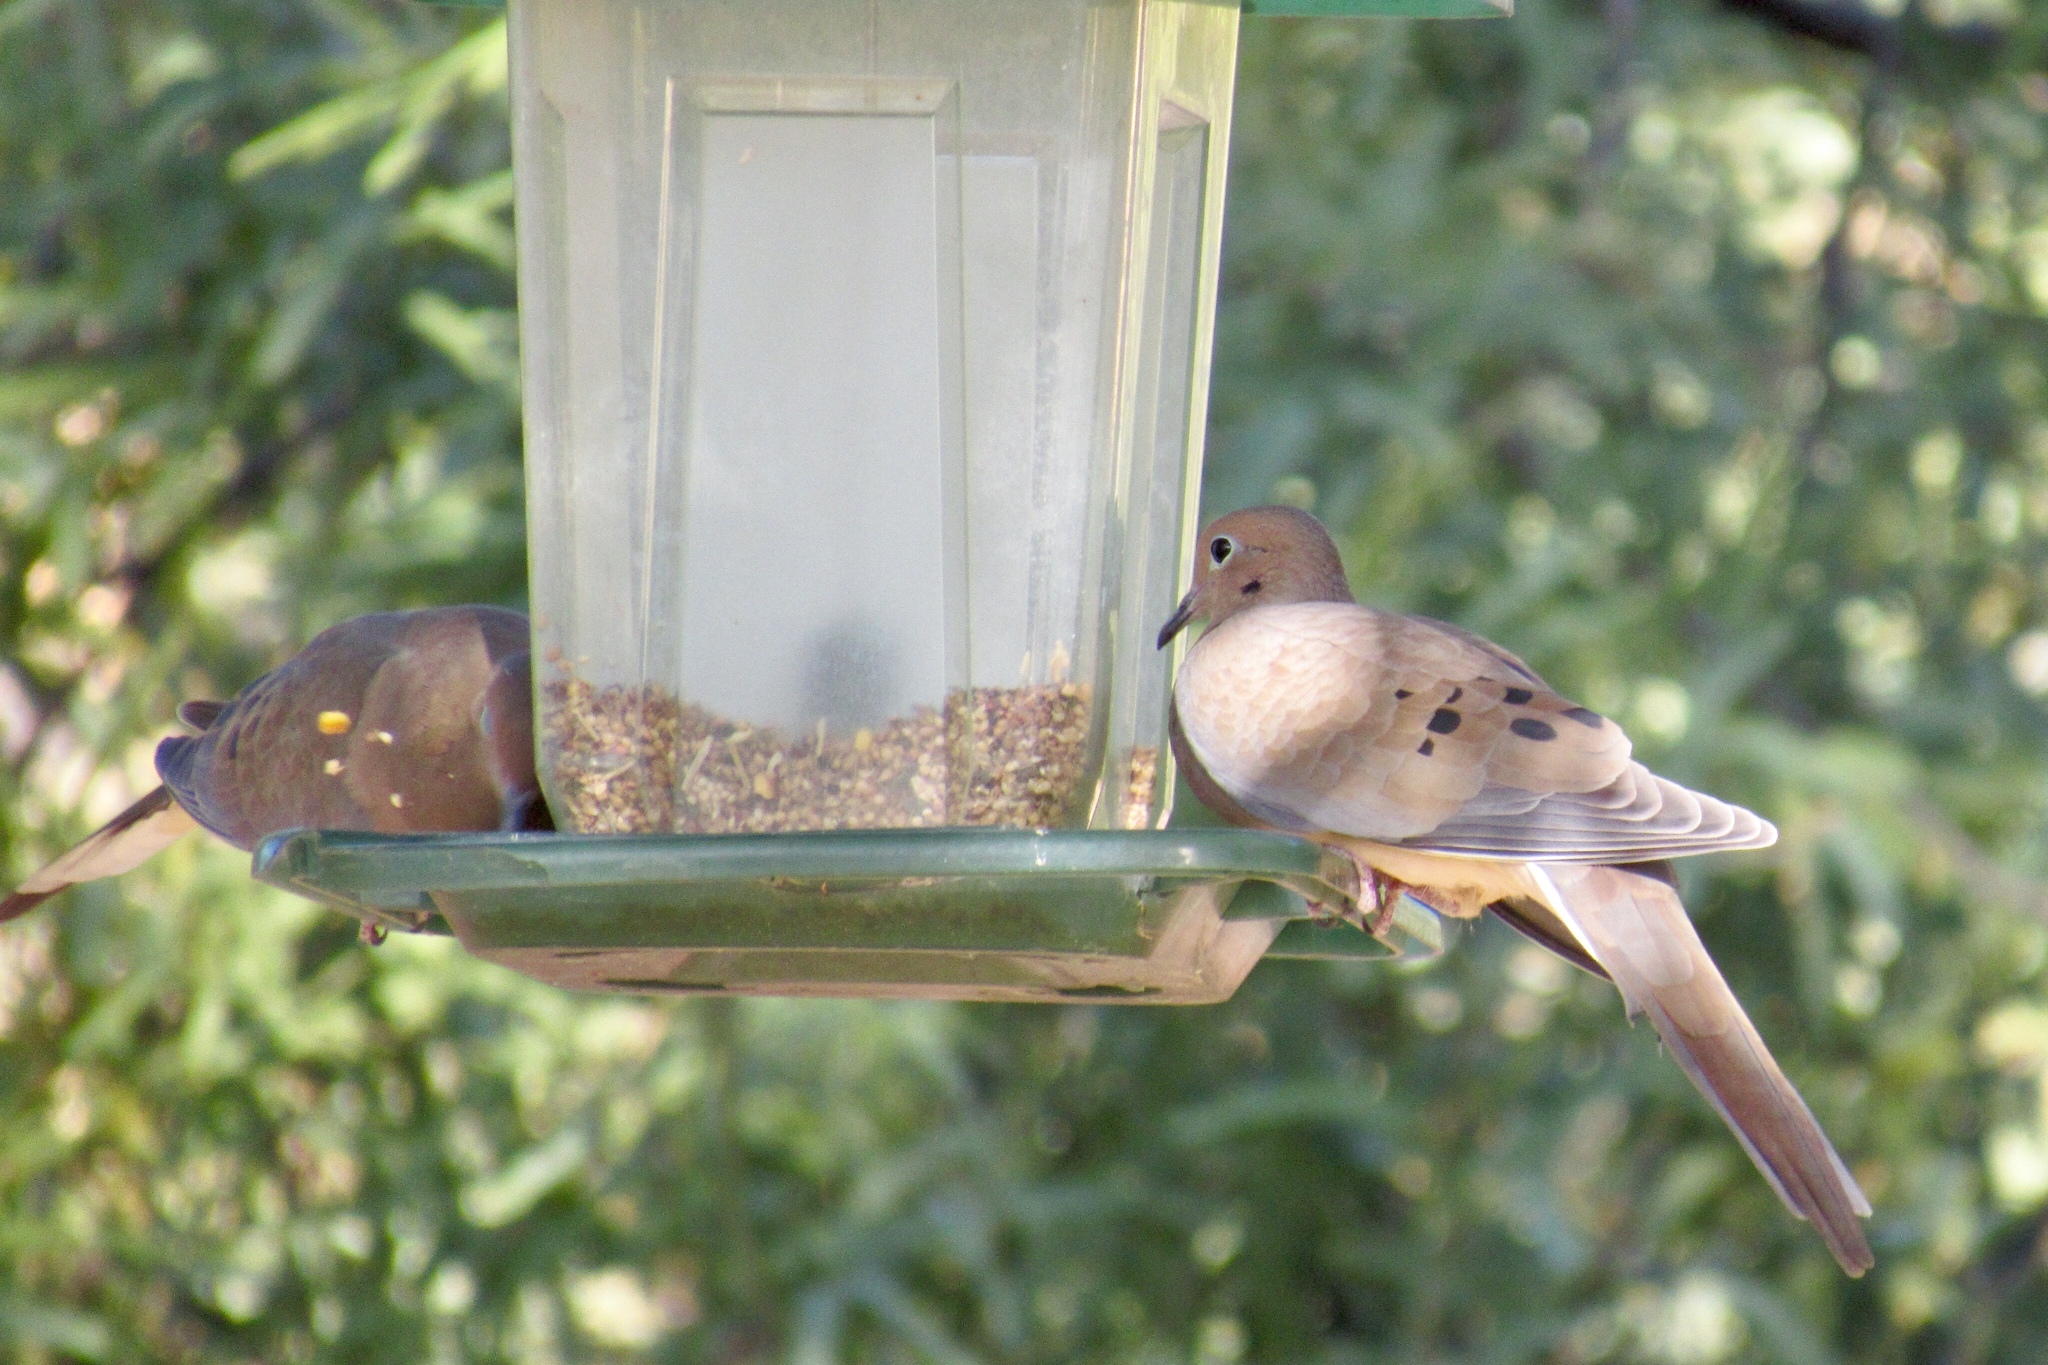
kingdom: Animalia
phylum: Chordata
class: Aves
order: Columbiformes
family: Columbidae
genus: Zenaida
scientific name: Zenaida macroura
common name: Mourning dove
